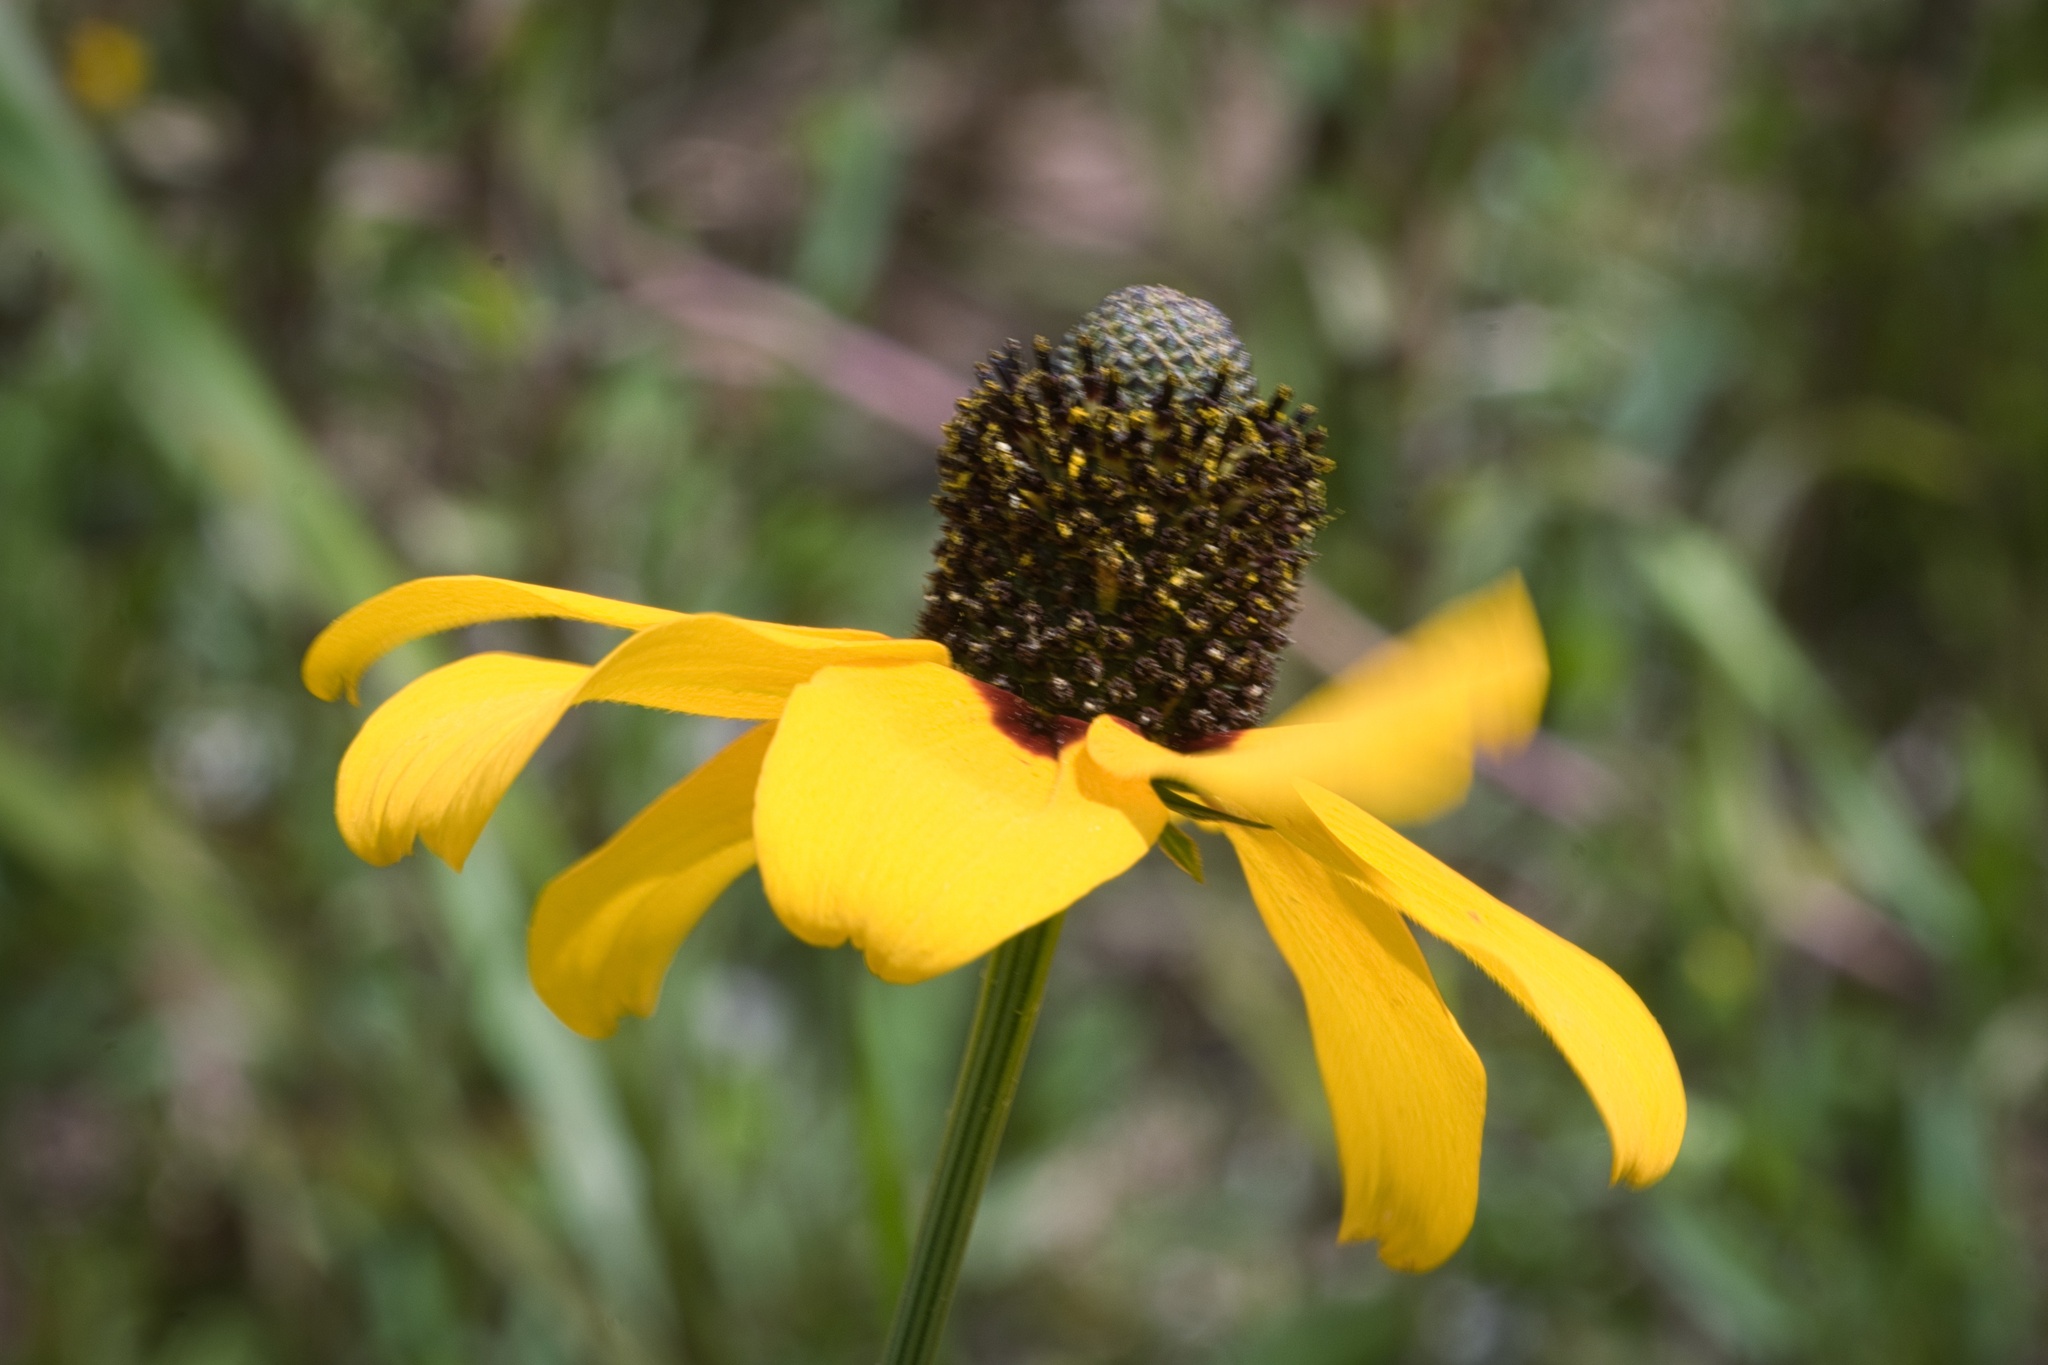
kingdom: Plantae
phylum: Tracheophyta
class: Magnoliopsida
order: Asterales
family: Asteraceae
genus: Rudbeckia
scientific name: Rudbeckia amplexicaulis
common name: Clasping-leaf coneflower
